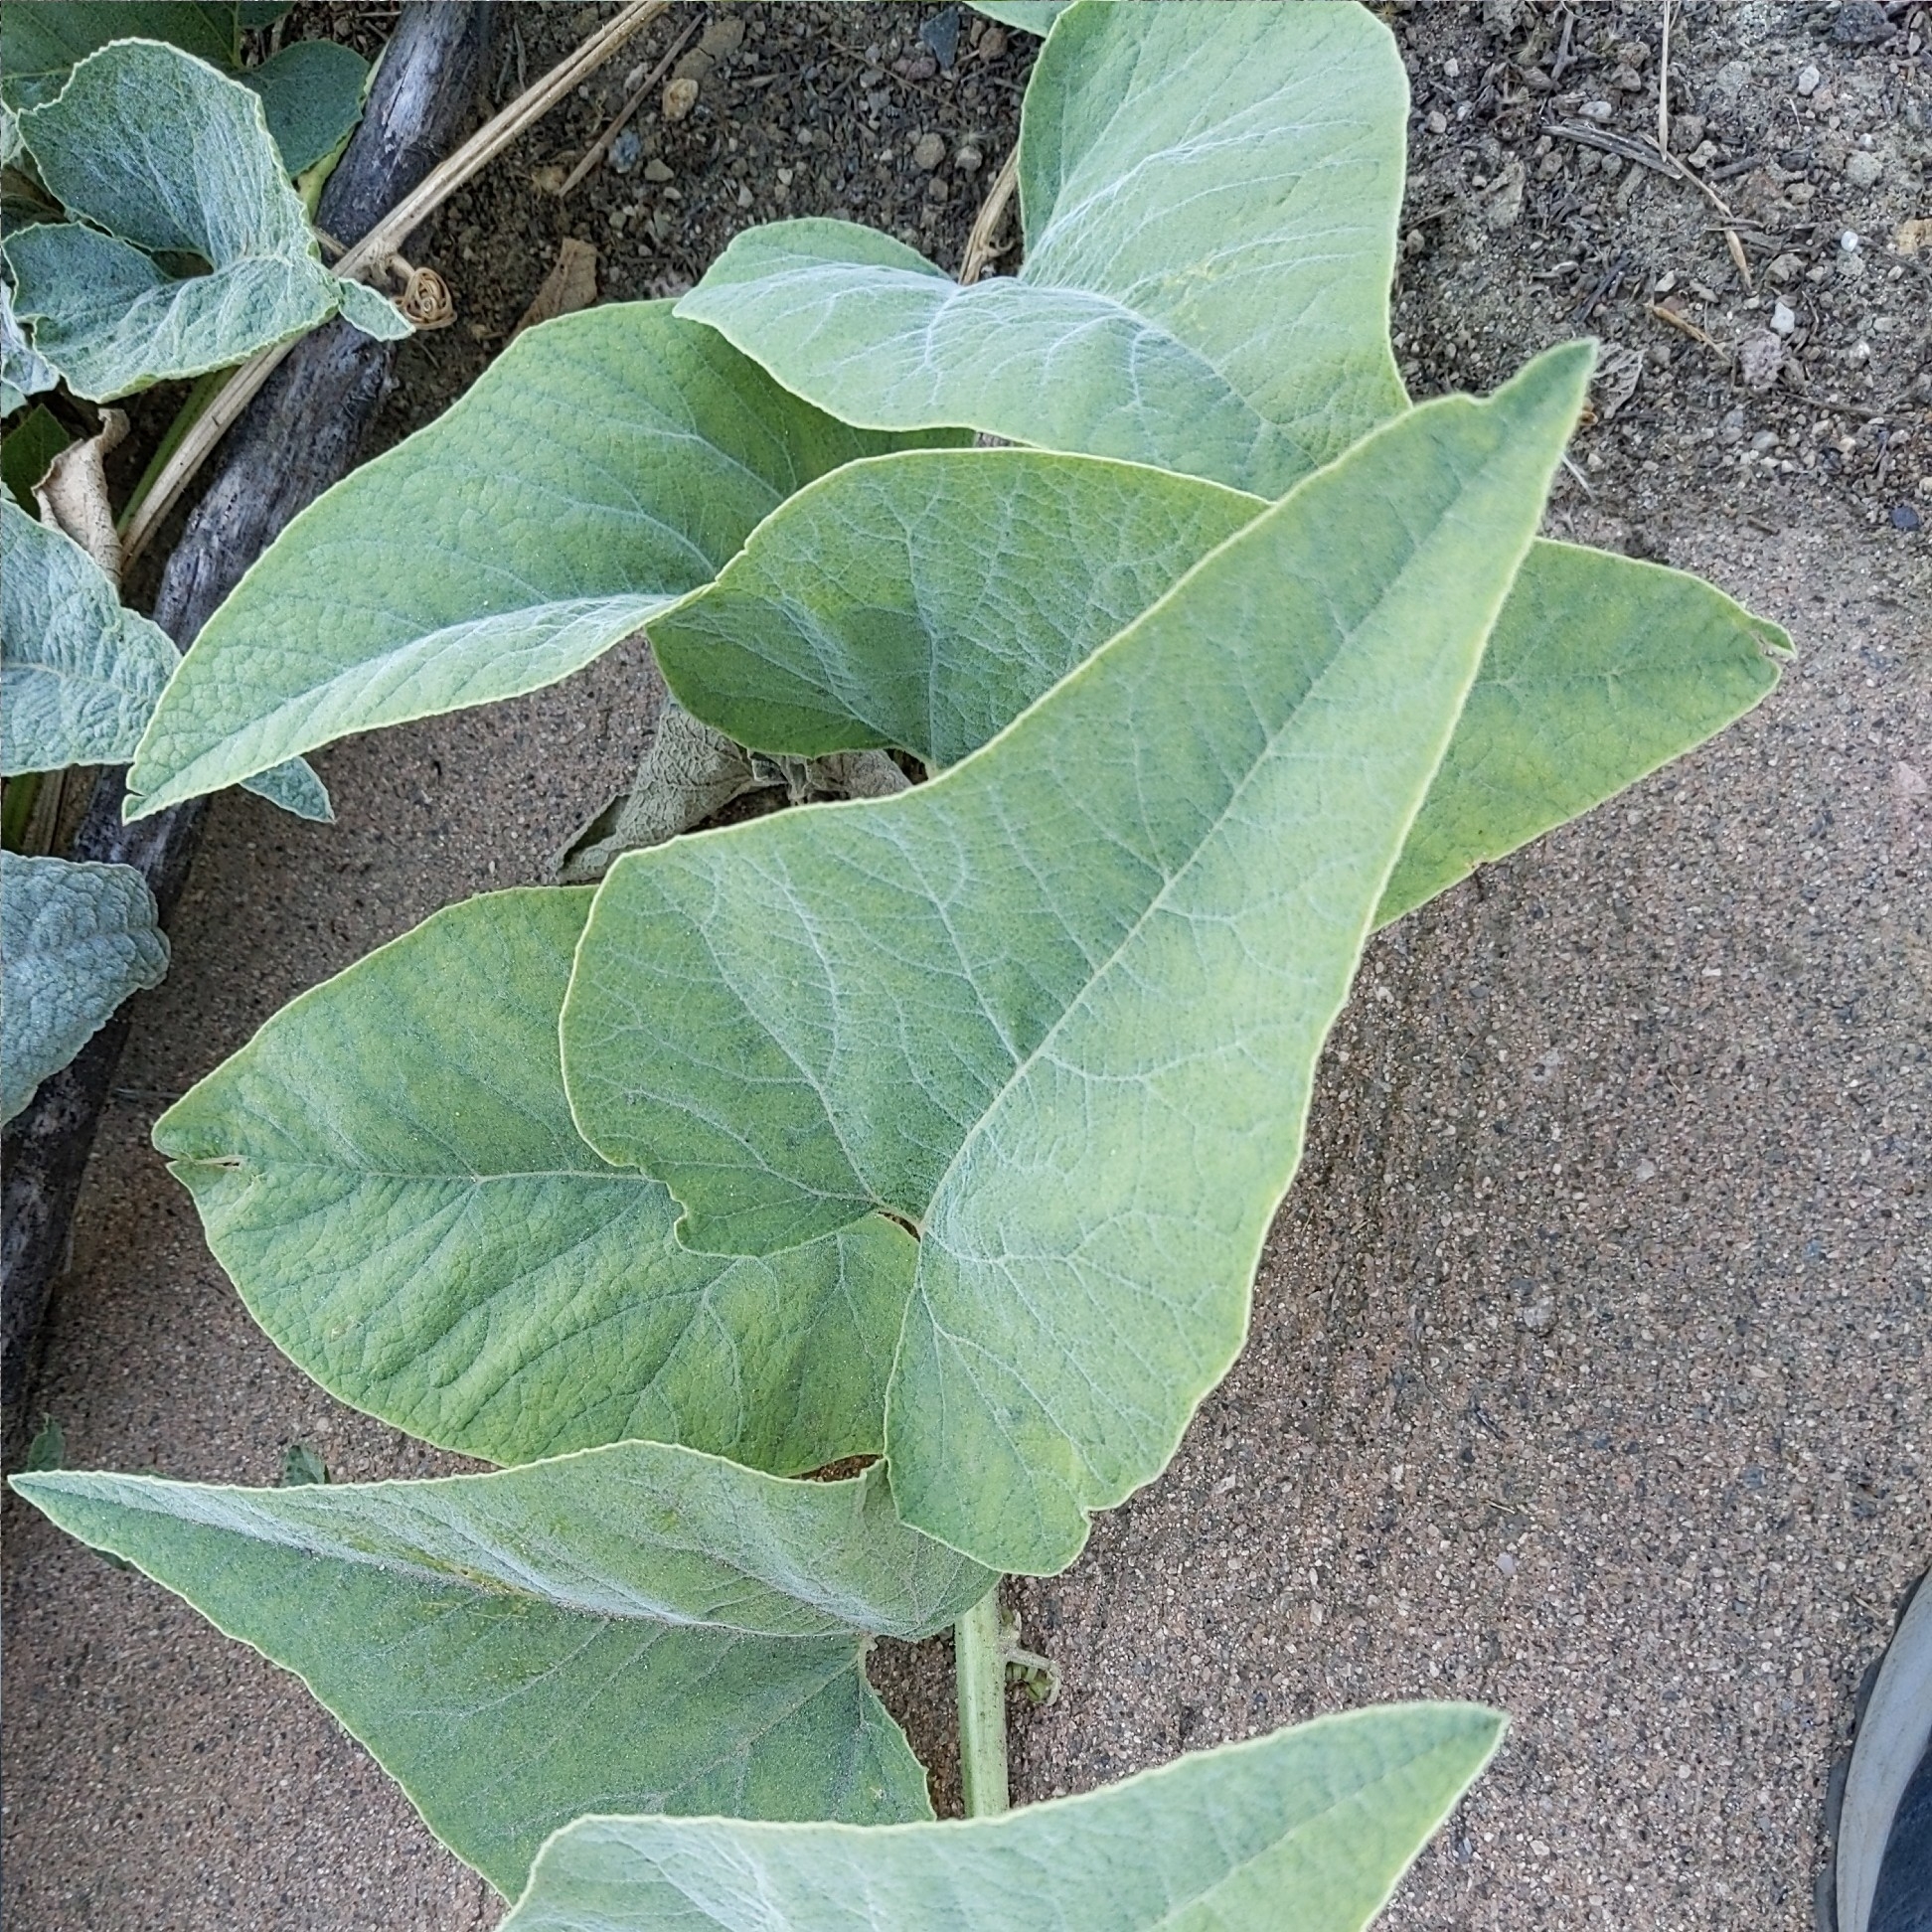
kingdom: Plantae
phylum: Tracheophyta
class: Magnoliopsida
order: Cucurbitales
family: Cucurbitaceae
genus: Cucurbita
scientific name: Cucurbita foetidissima
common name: Buffalo gourd
